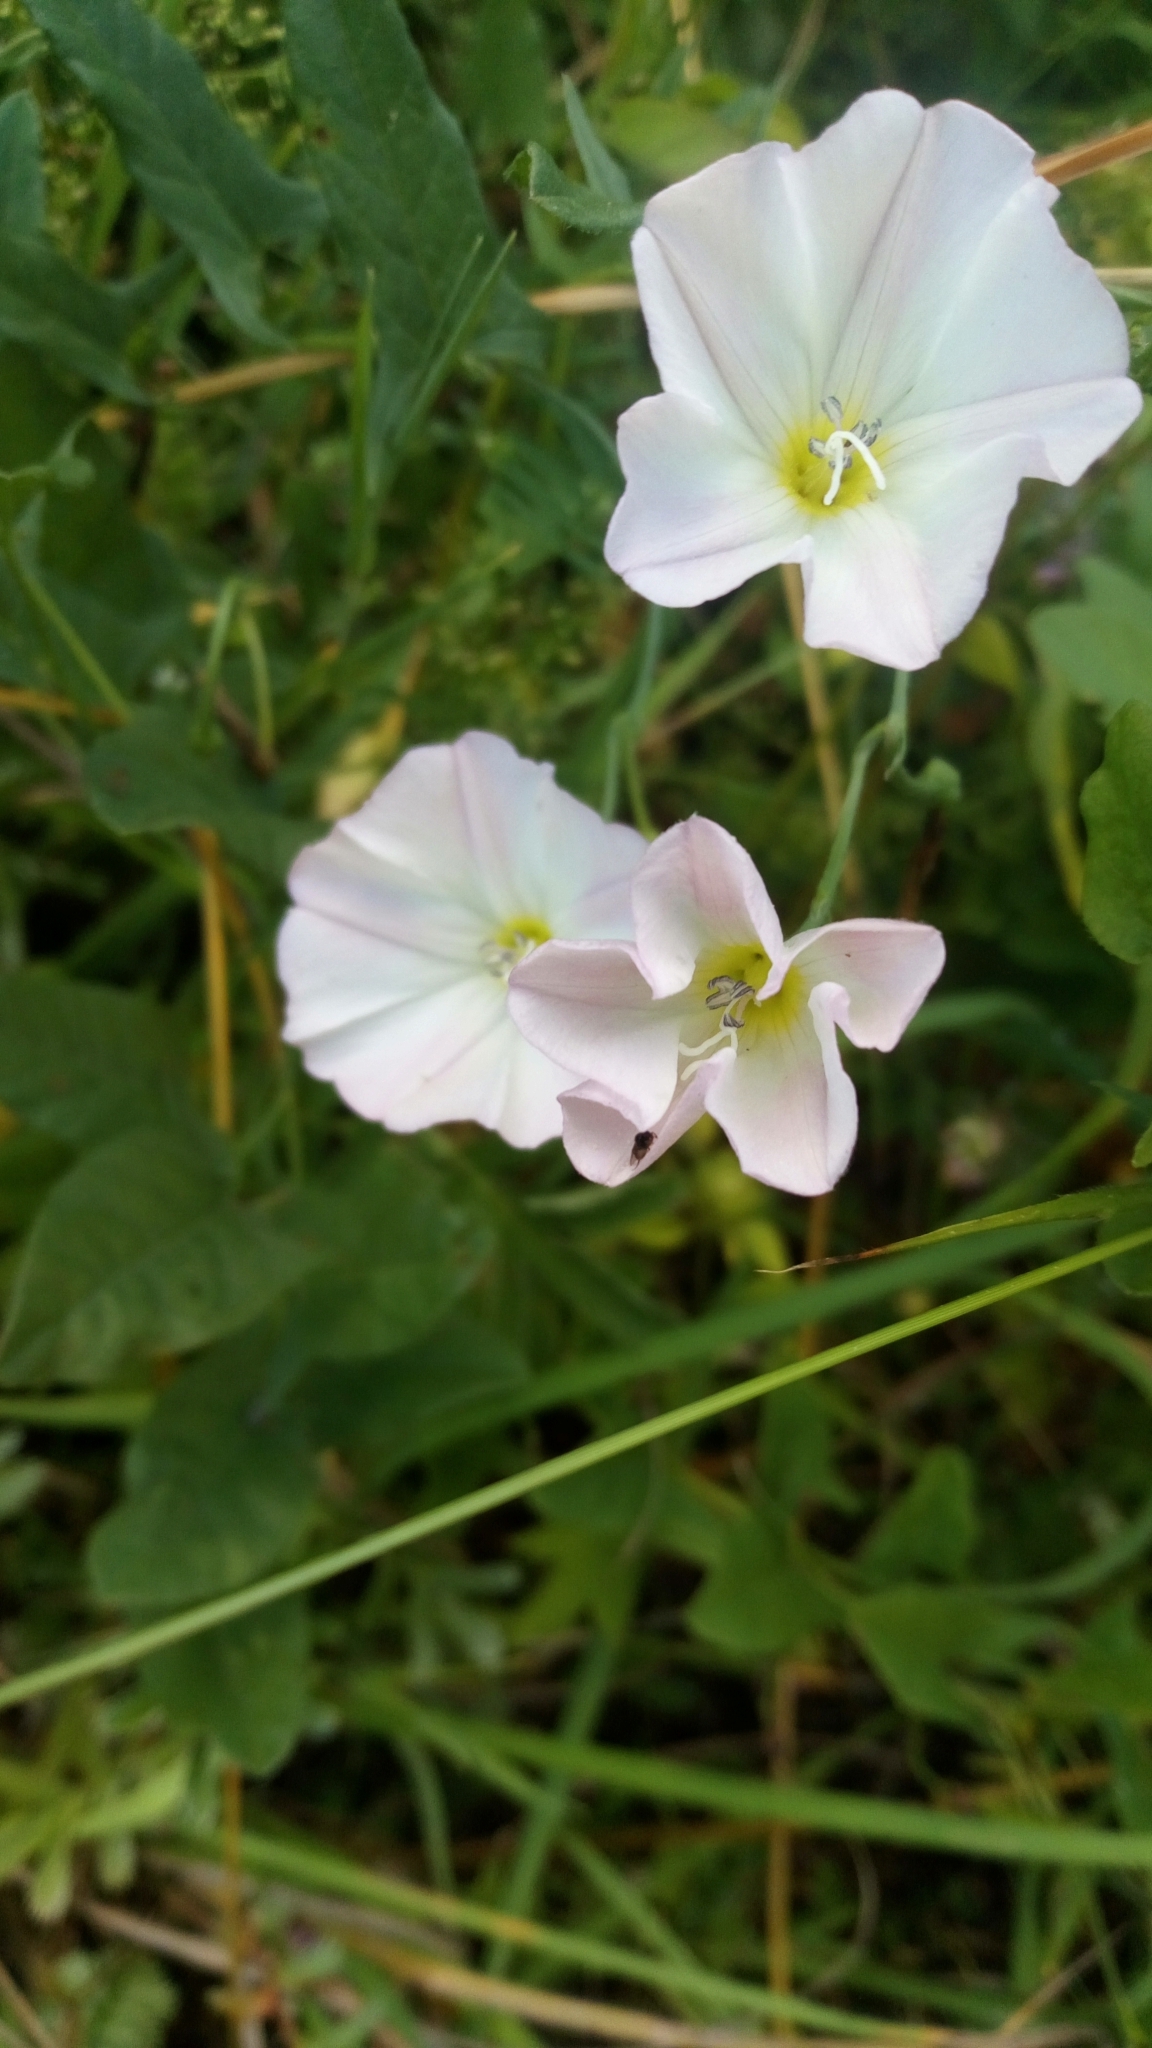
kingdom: Plantae
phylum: Tracheophyta
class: Magnoliopsida
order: Solanales
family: Convolvulaceae
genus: Convolvulus
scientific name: Convolvulus arvensis
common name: Field bindweed
